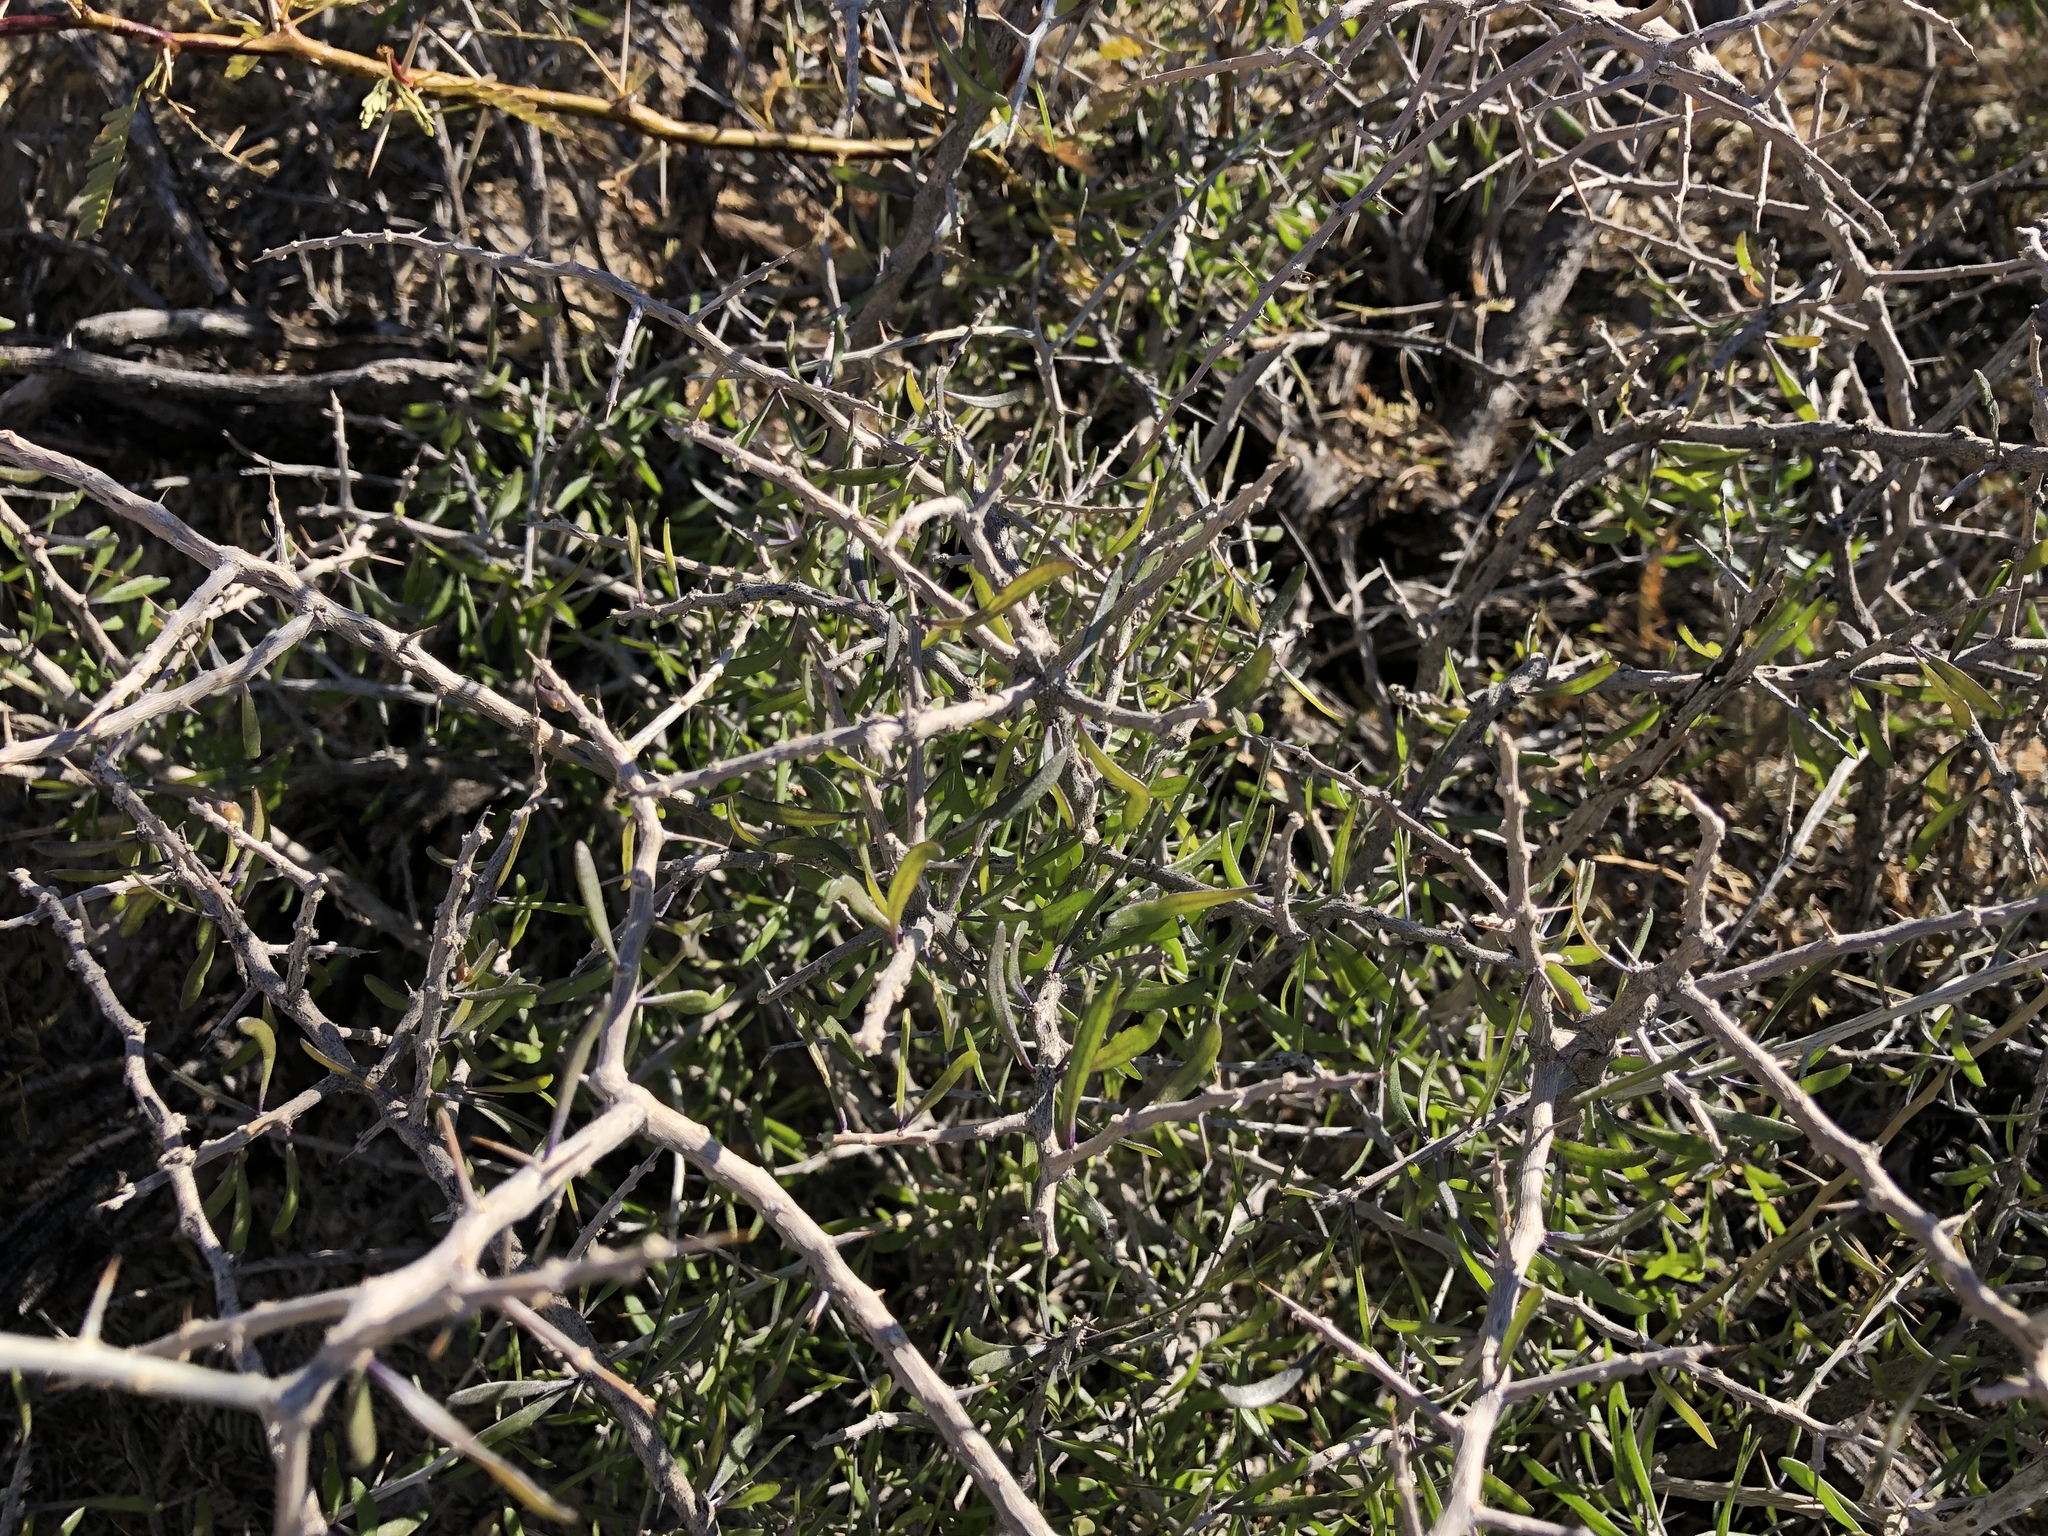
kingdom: Plantae
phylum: Tracheophyta
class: Magnoliopsida
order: Solanales
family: Solanaceae
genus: Lycium
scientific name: Lycium berlandieri
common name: Berlandier wolfberry
